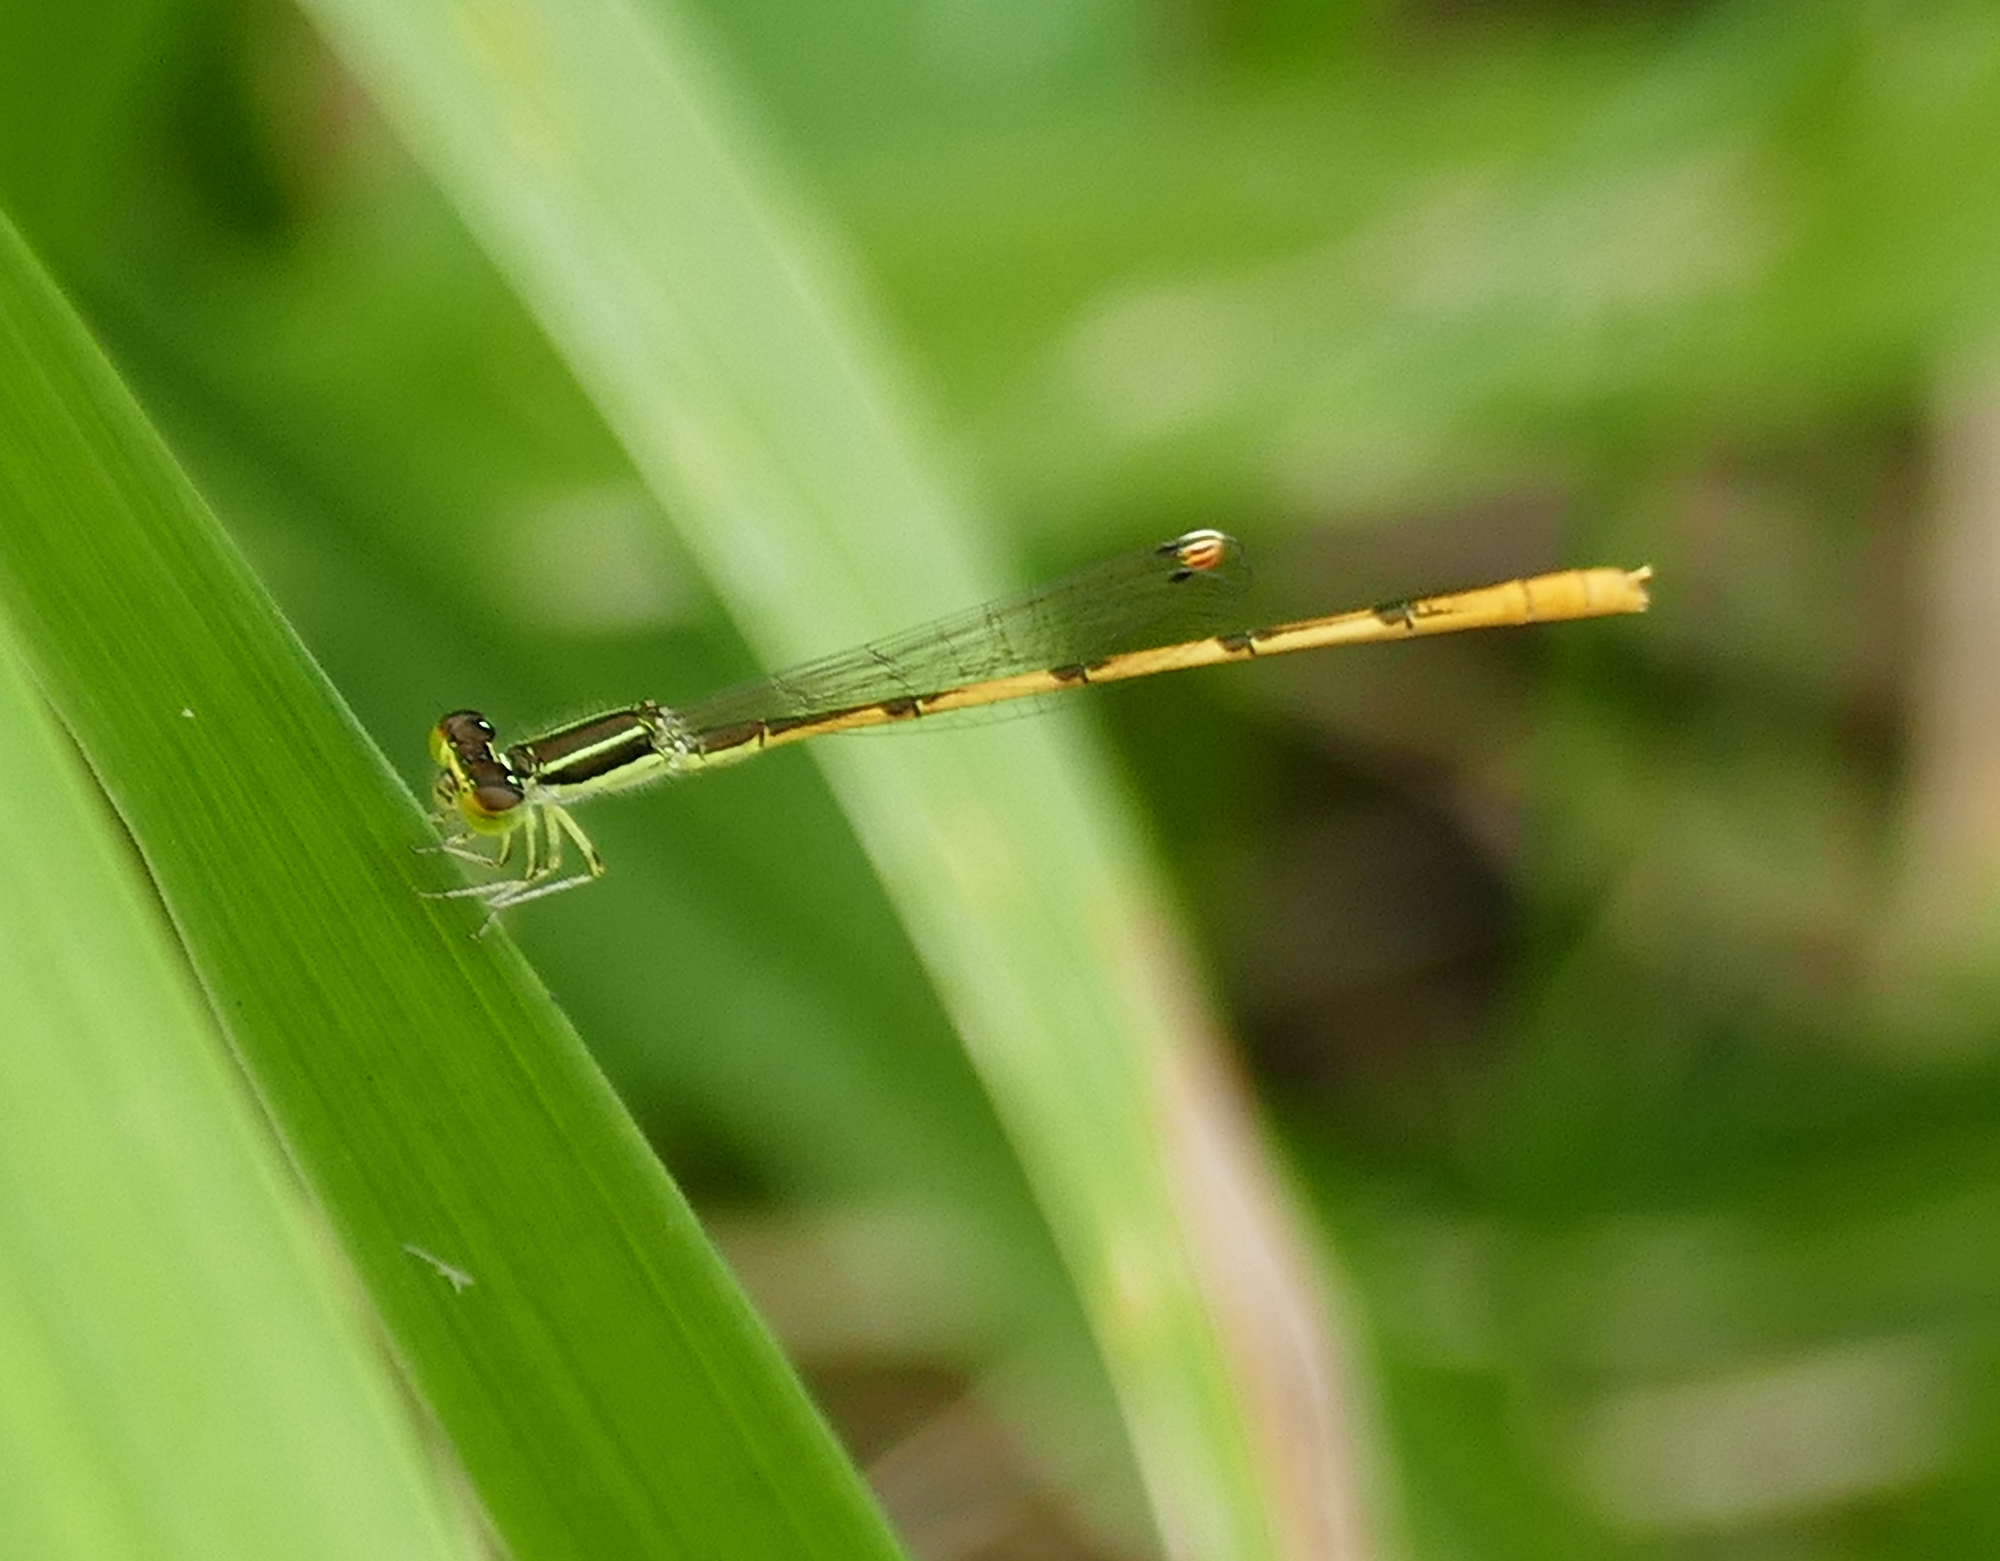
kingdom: Animalia
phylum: Arthropoda
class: Insecta
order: Odonata
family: Coenagrionidae
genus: Ischnura
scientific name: Ischnura hastata
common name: Citrine forktail
